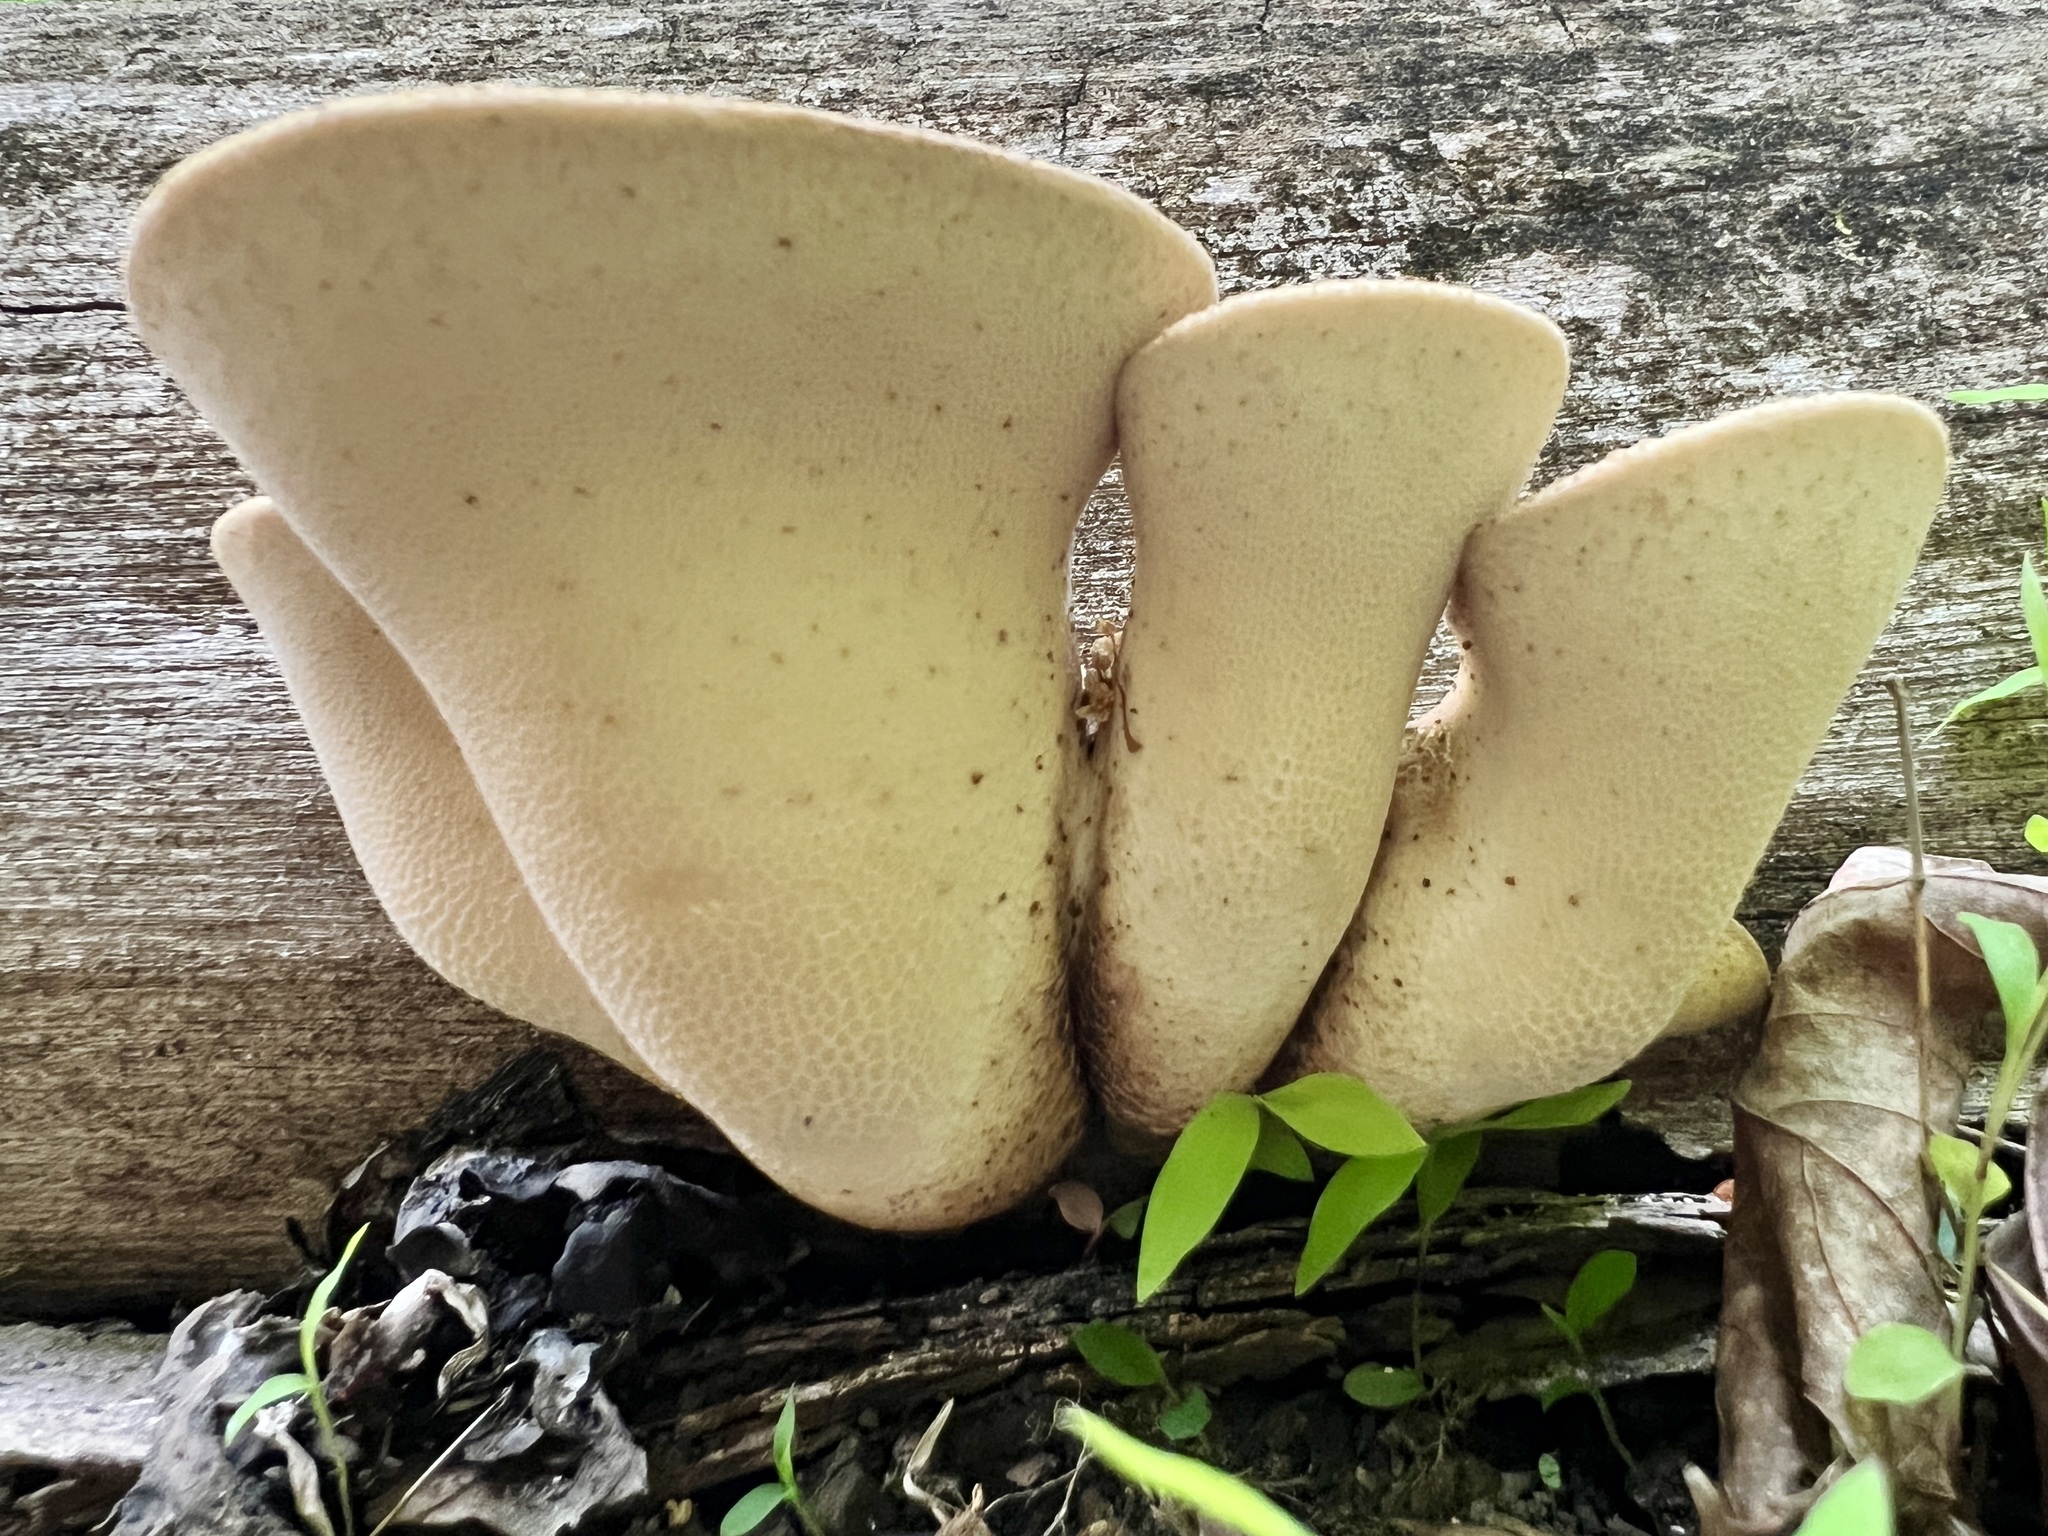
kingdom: Fungi
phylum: Basidiomycota
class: Agaricomycetes
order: Polyporales
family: Polyporaceae
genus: Cerioporus
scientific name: Cerioporus squamosus
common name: Dryad's saddle
